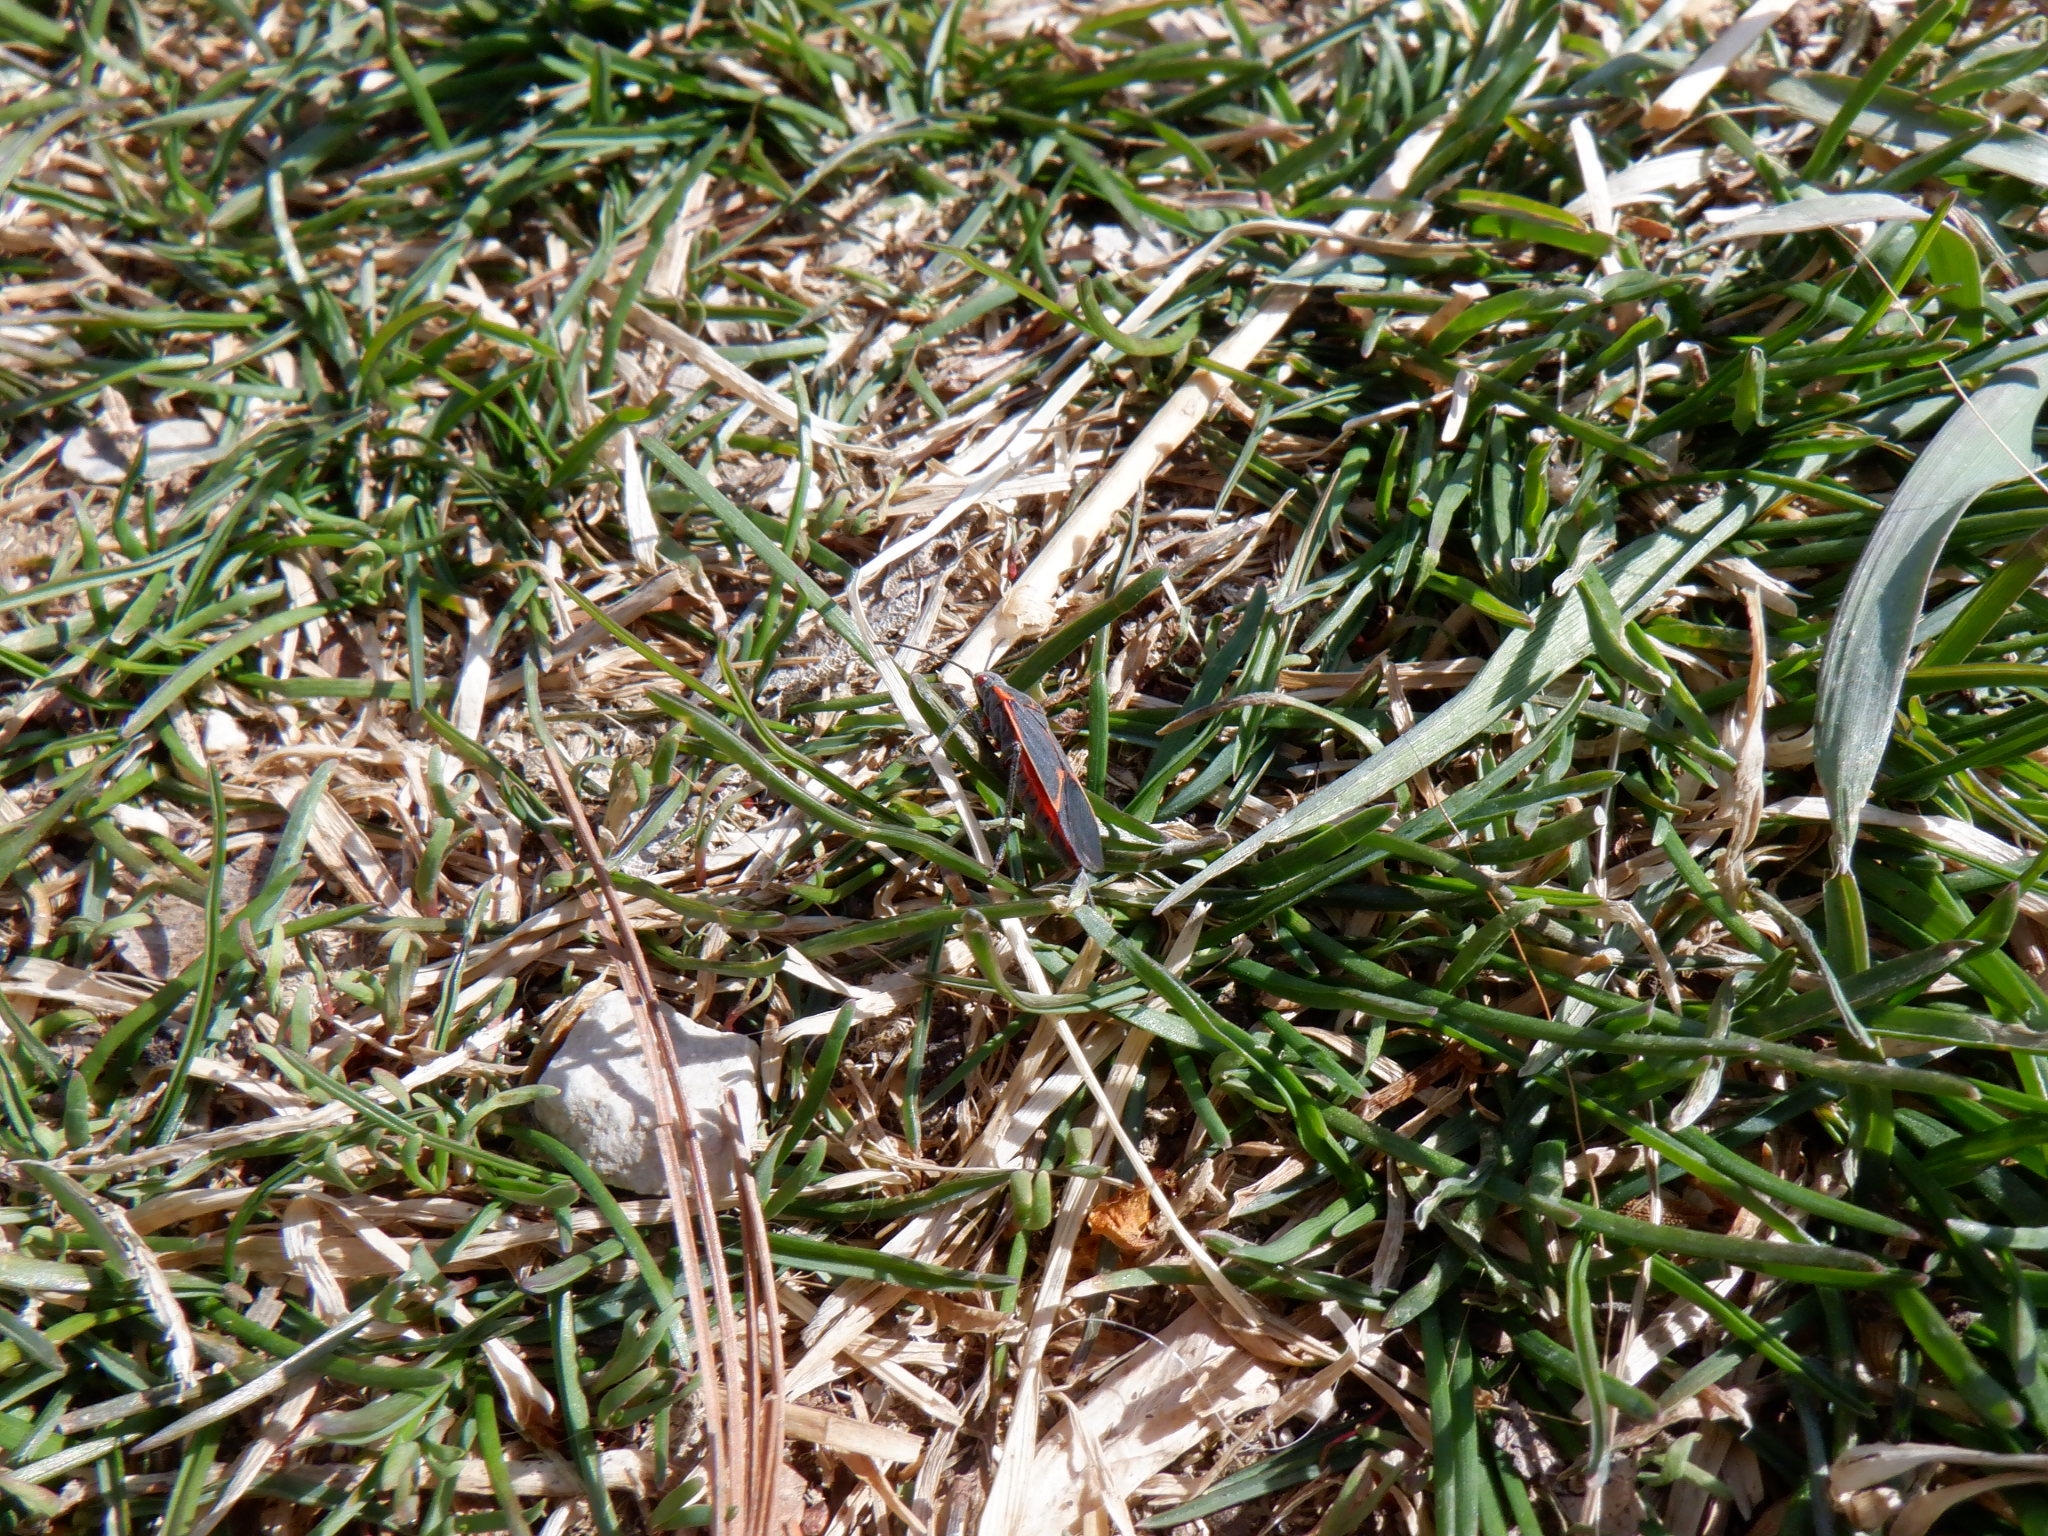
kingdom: Animalia
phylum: Arthropoda
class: Insecta
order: Hemiptera
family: Rhopalidae
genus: Boisea
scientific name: Boisea trivittata
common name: Boxelder bug
